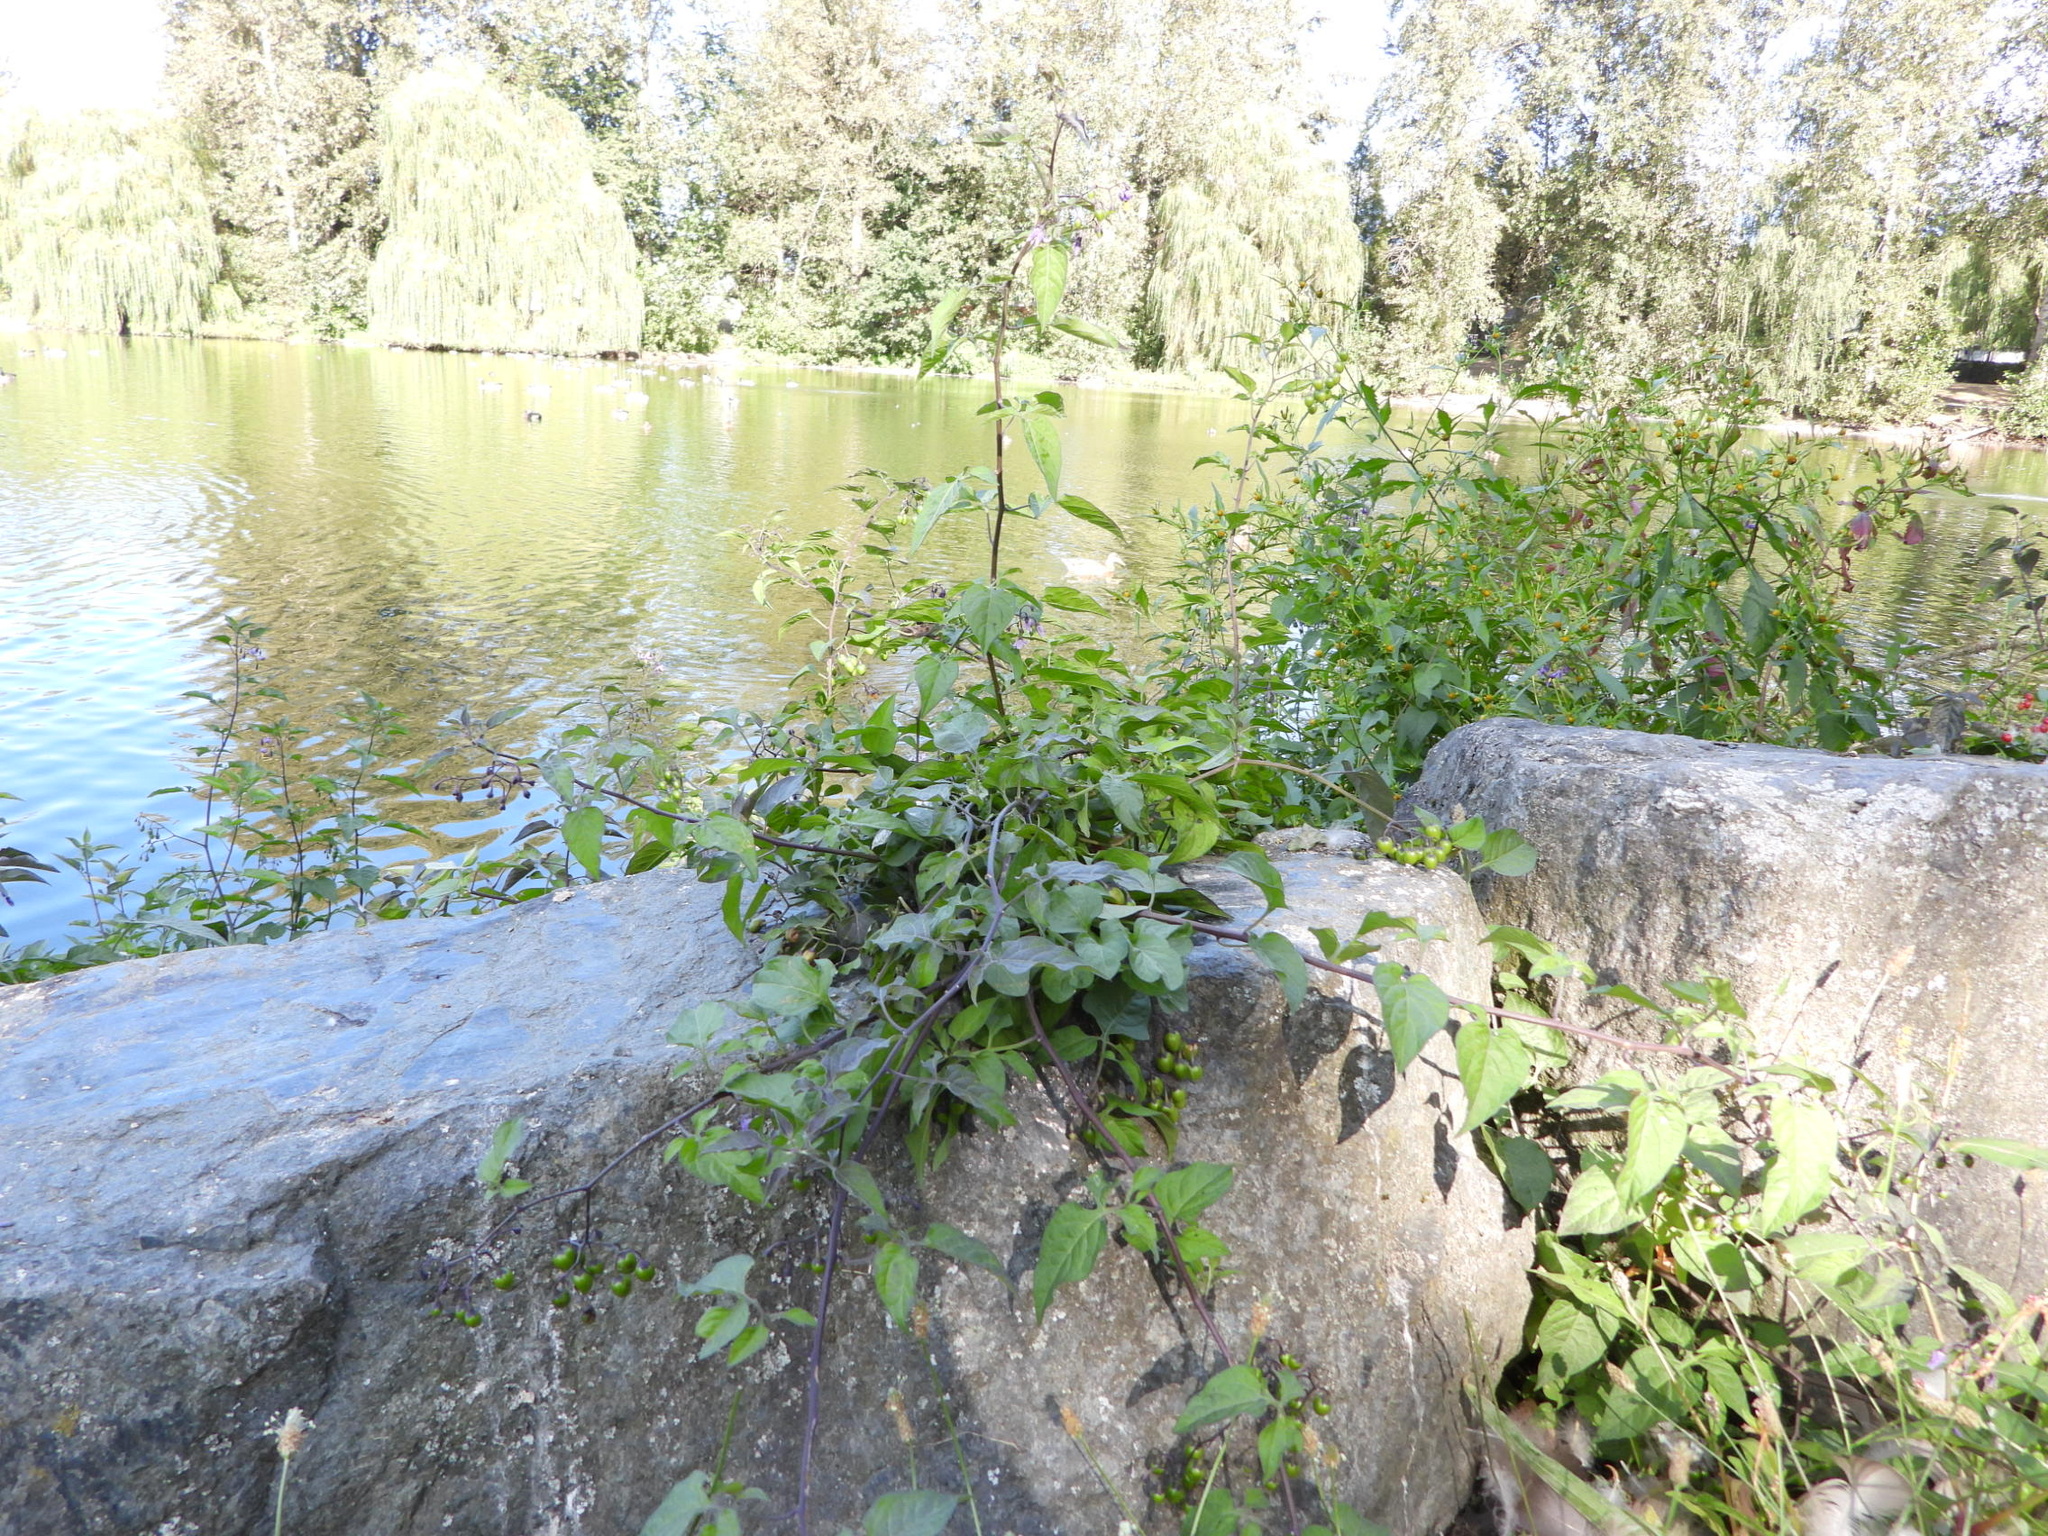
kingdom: Plantae
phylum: Tracheophyta
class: Magnoliopsida
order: Solanales
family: Solanaceae
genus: Solanum
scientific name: Solanum dulcamara
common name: Climbing nightshade
